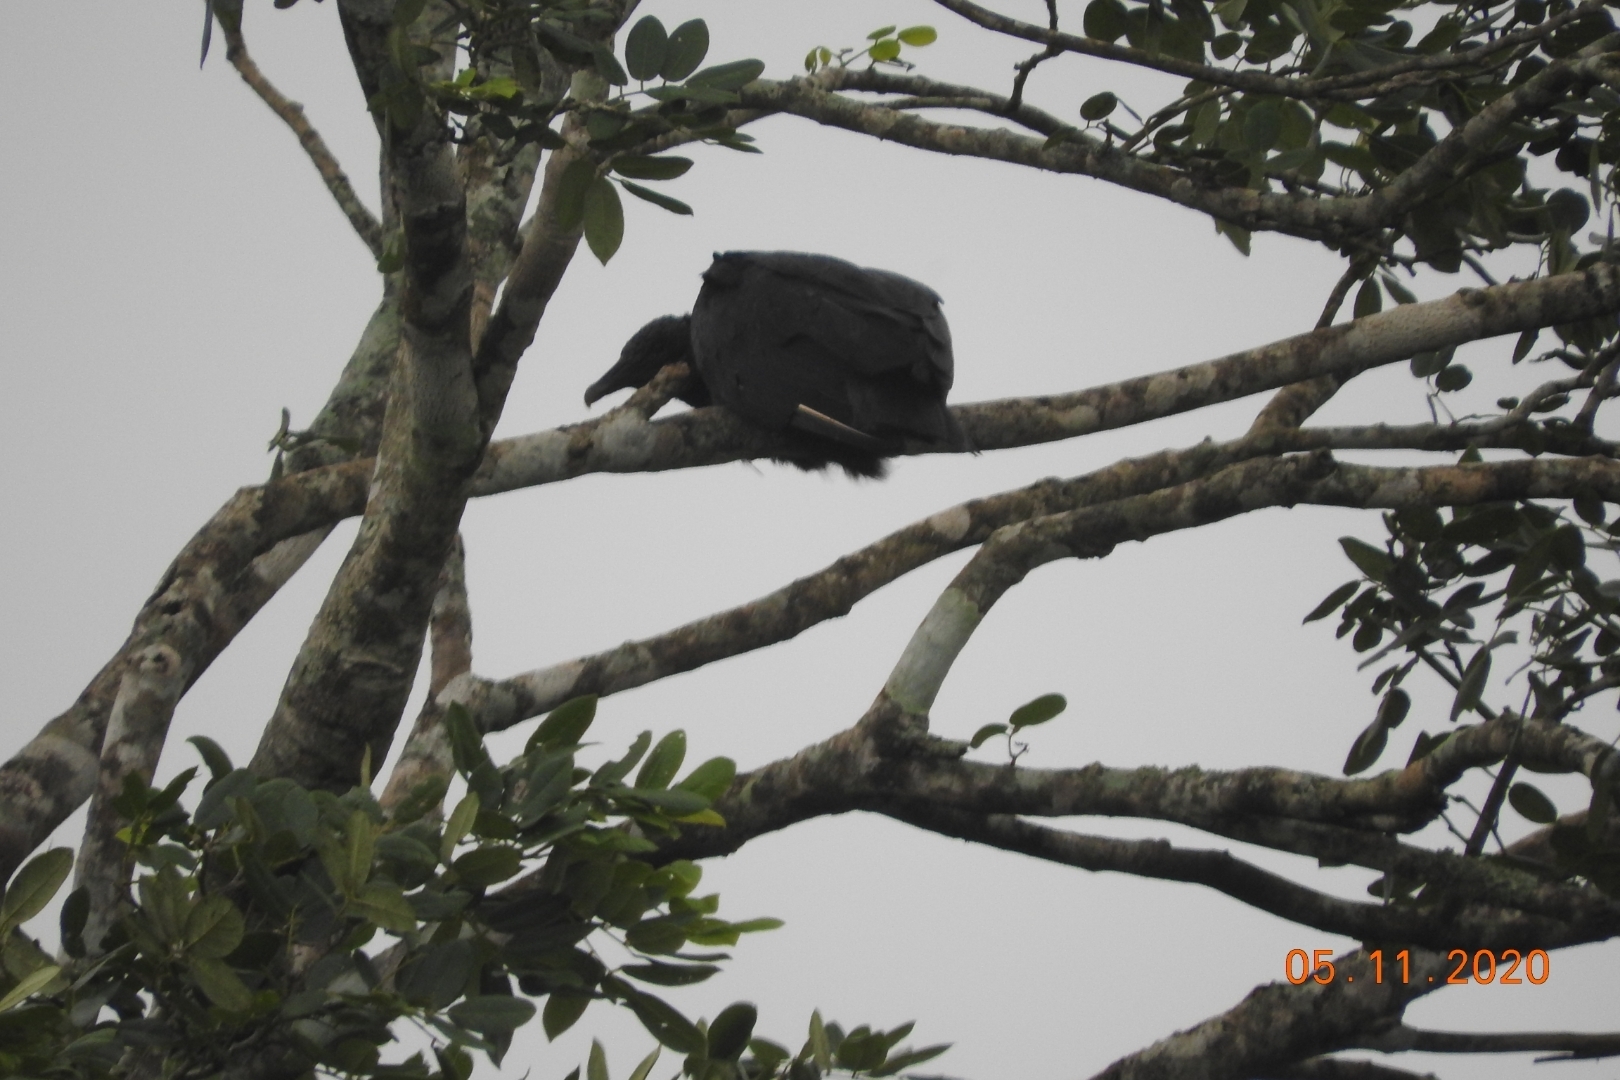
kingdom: Animalia
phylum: Chordata
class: Aves
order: Accipitriformes
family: Cathartidae
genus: Coragyps
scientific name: Coragyps atratus
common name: Black vulture
